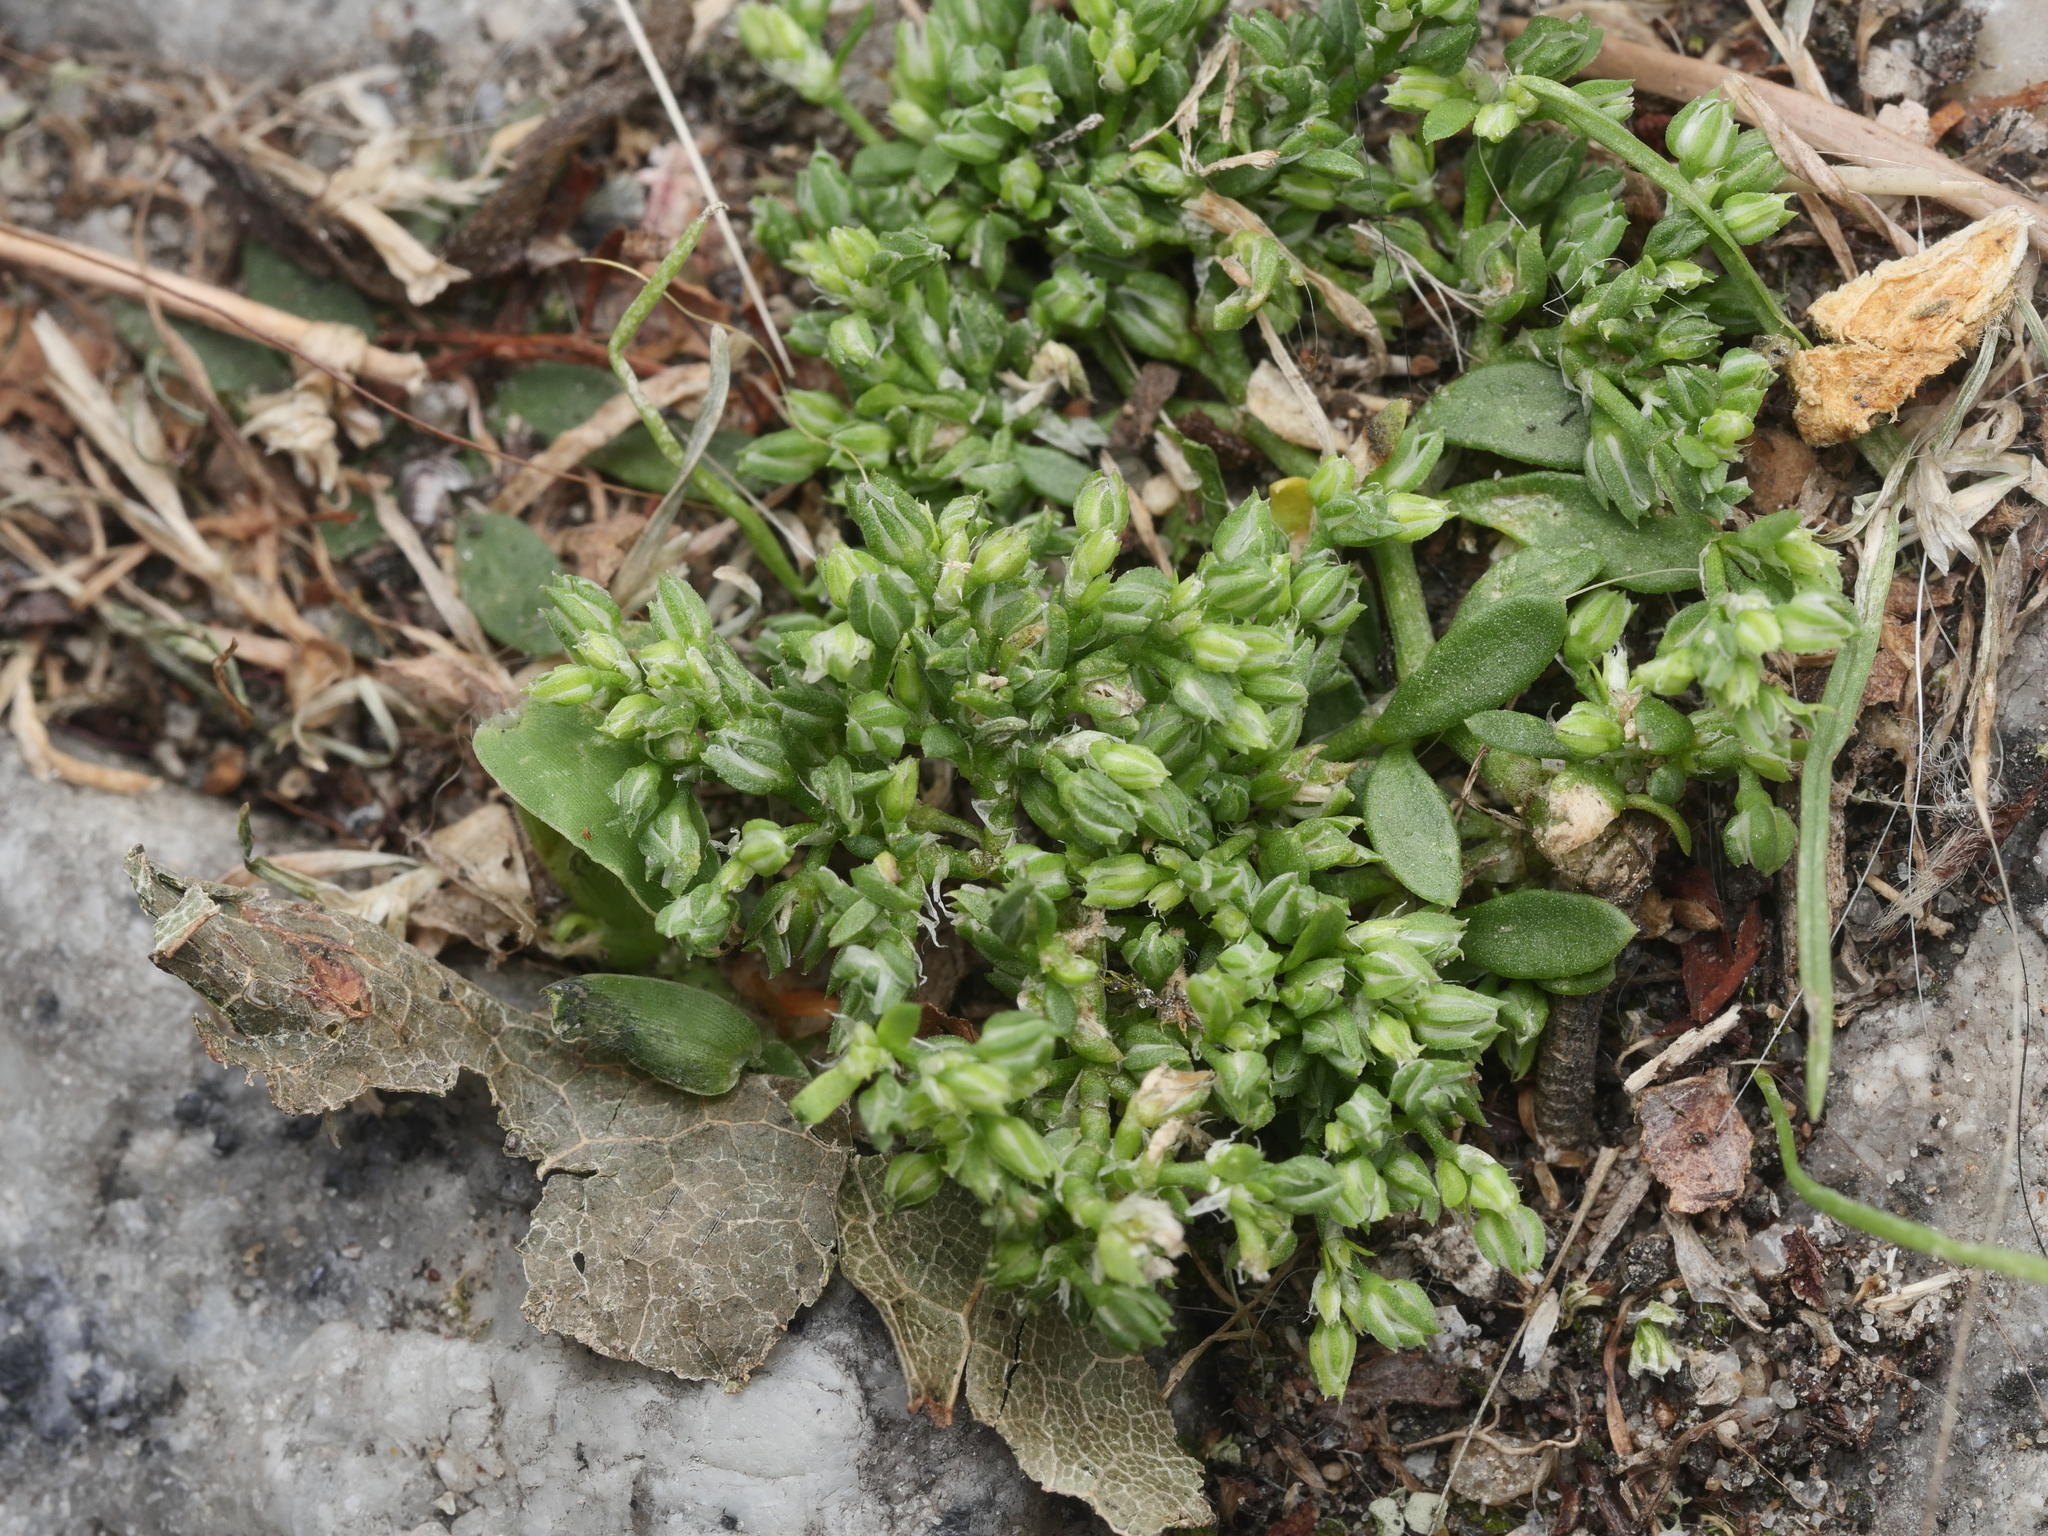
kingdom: Plantae
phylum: Tracheophyta
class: Magnoliopsida
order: Caryophyllales
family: Caryophyllaceae
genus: Polycarpon
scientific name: Polycarpon tetraphyllum
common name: Four-leaved all-seed
